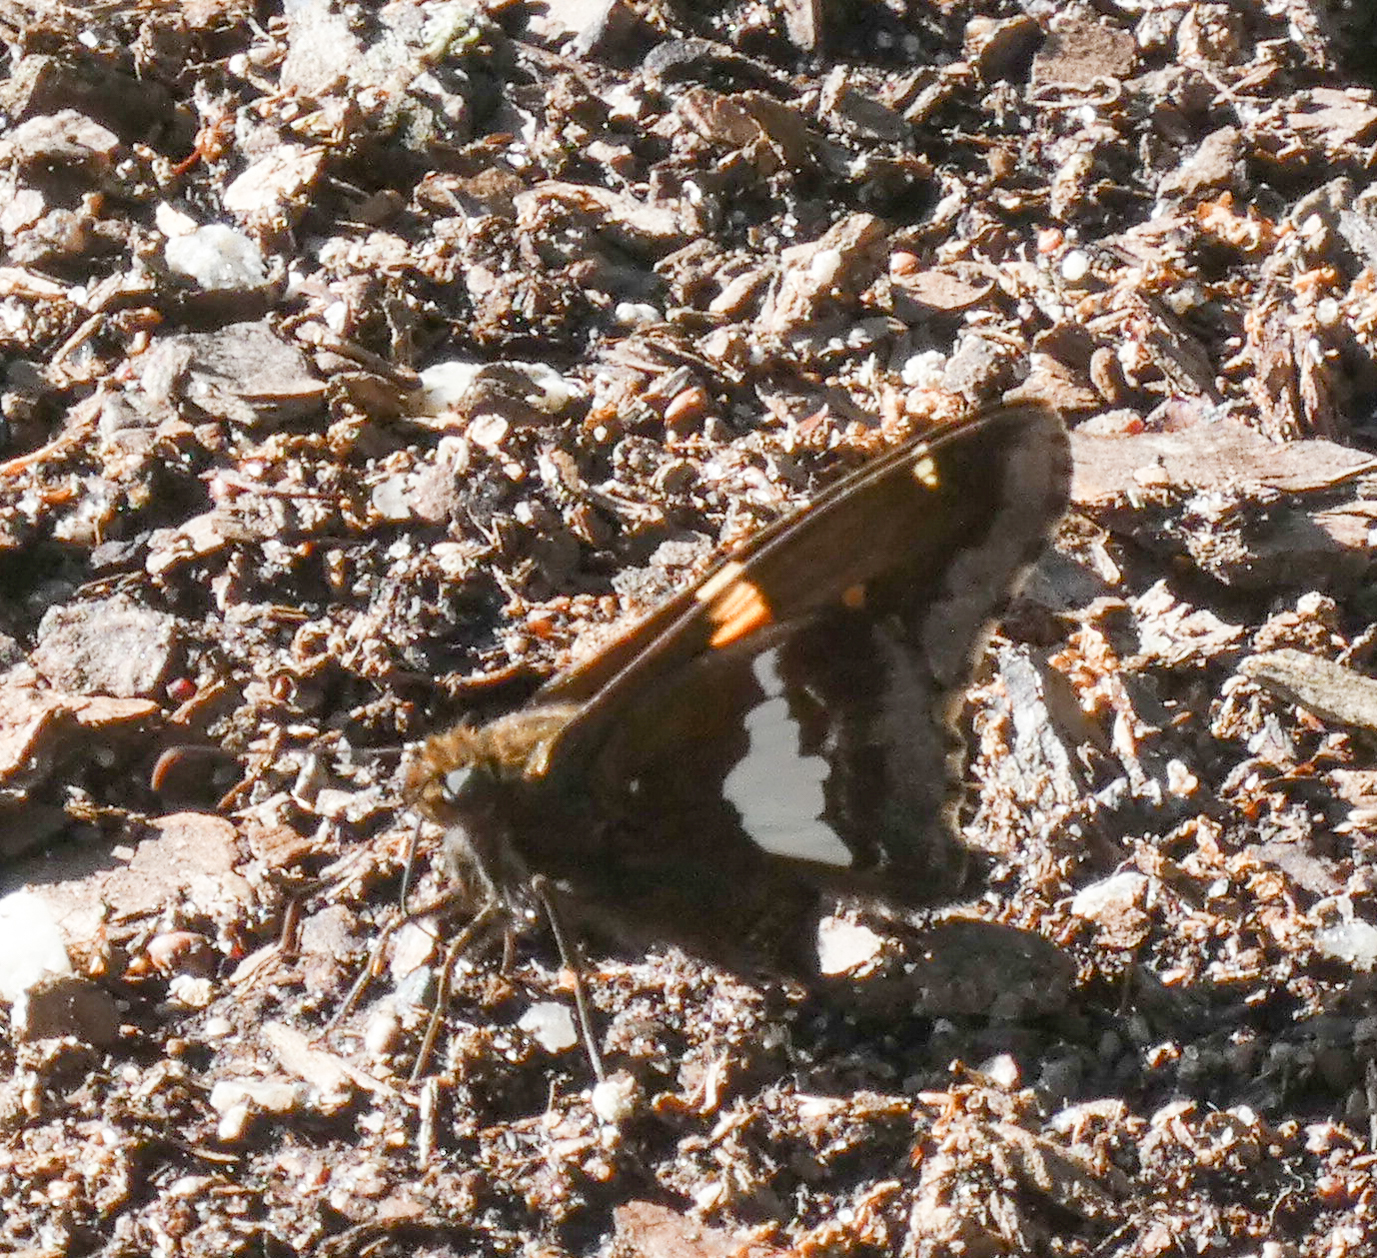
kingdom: Animalia
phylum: Arthropoda
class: Insecta
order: Lepidoptera
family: Hesperiidae
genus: Epargyreus
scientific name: Epargyreus clarus
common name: Silver-spotted skipper
